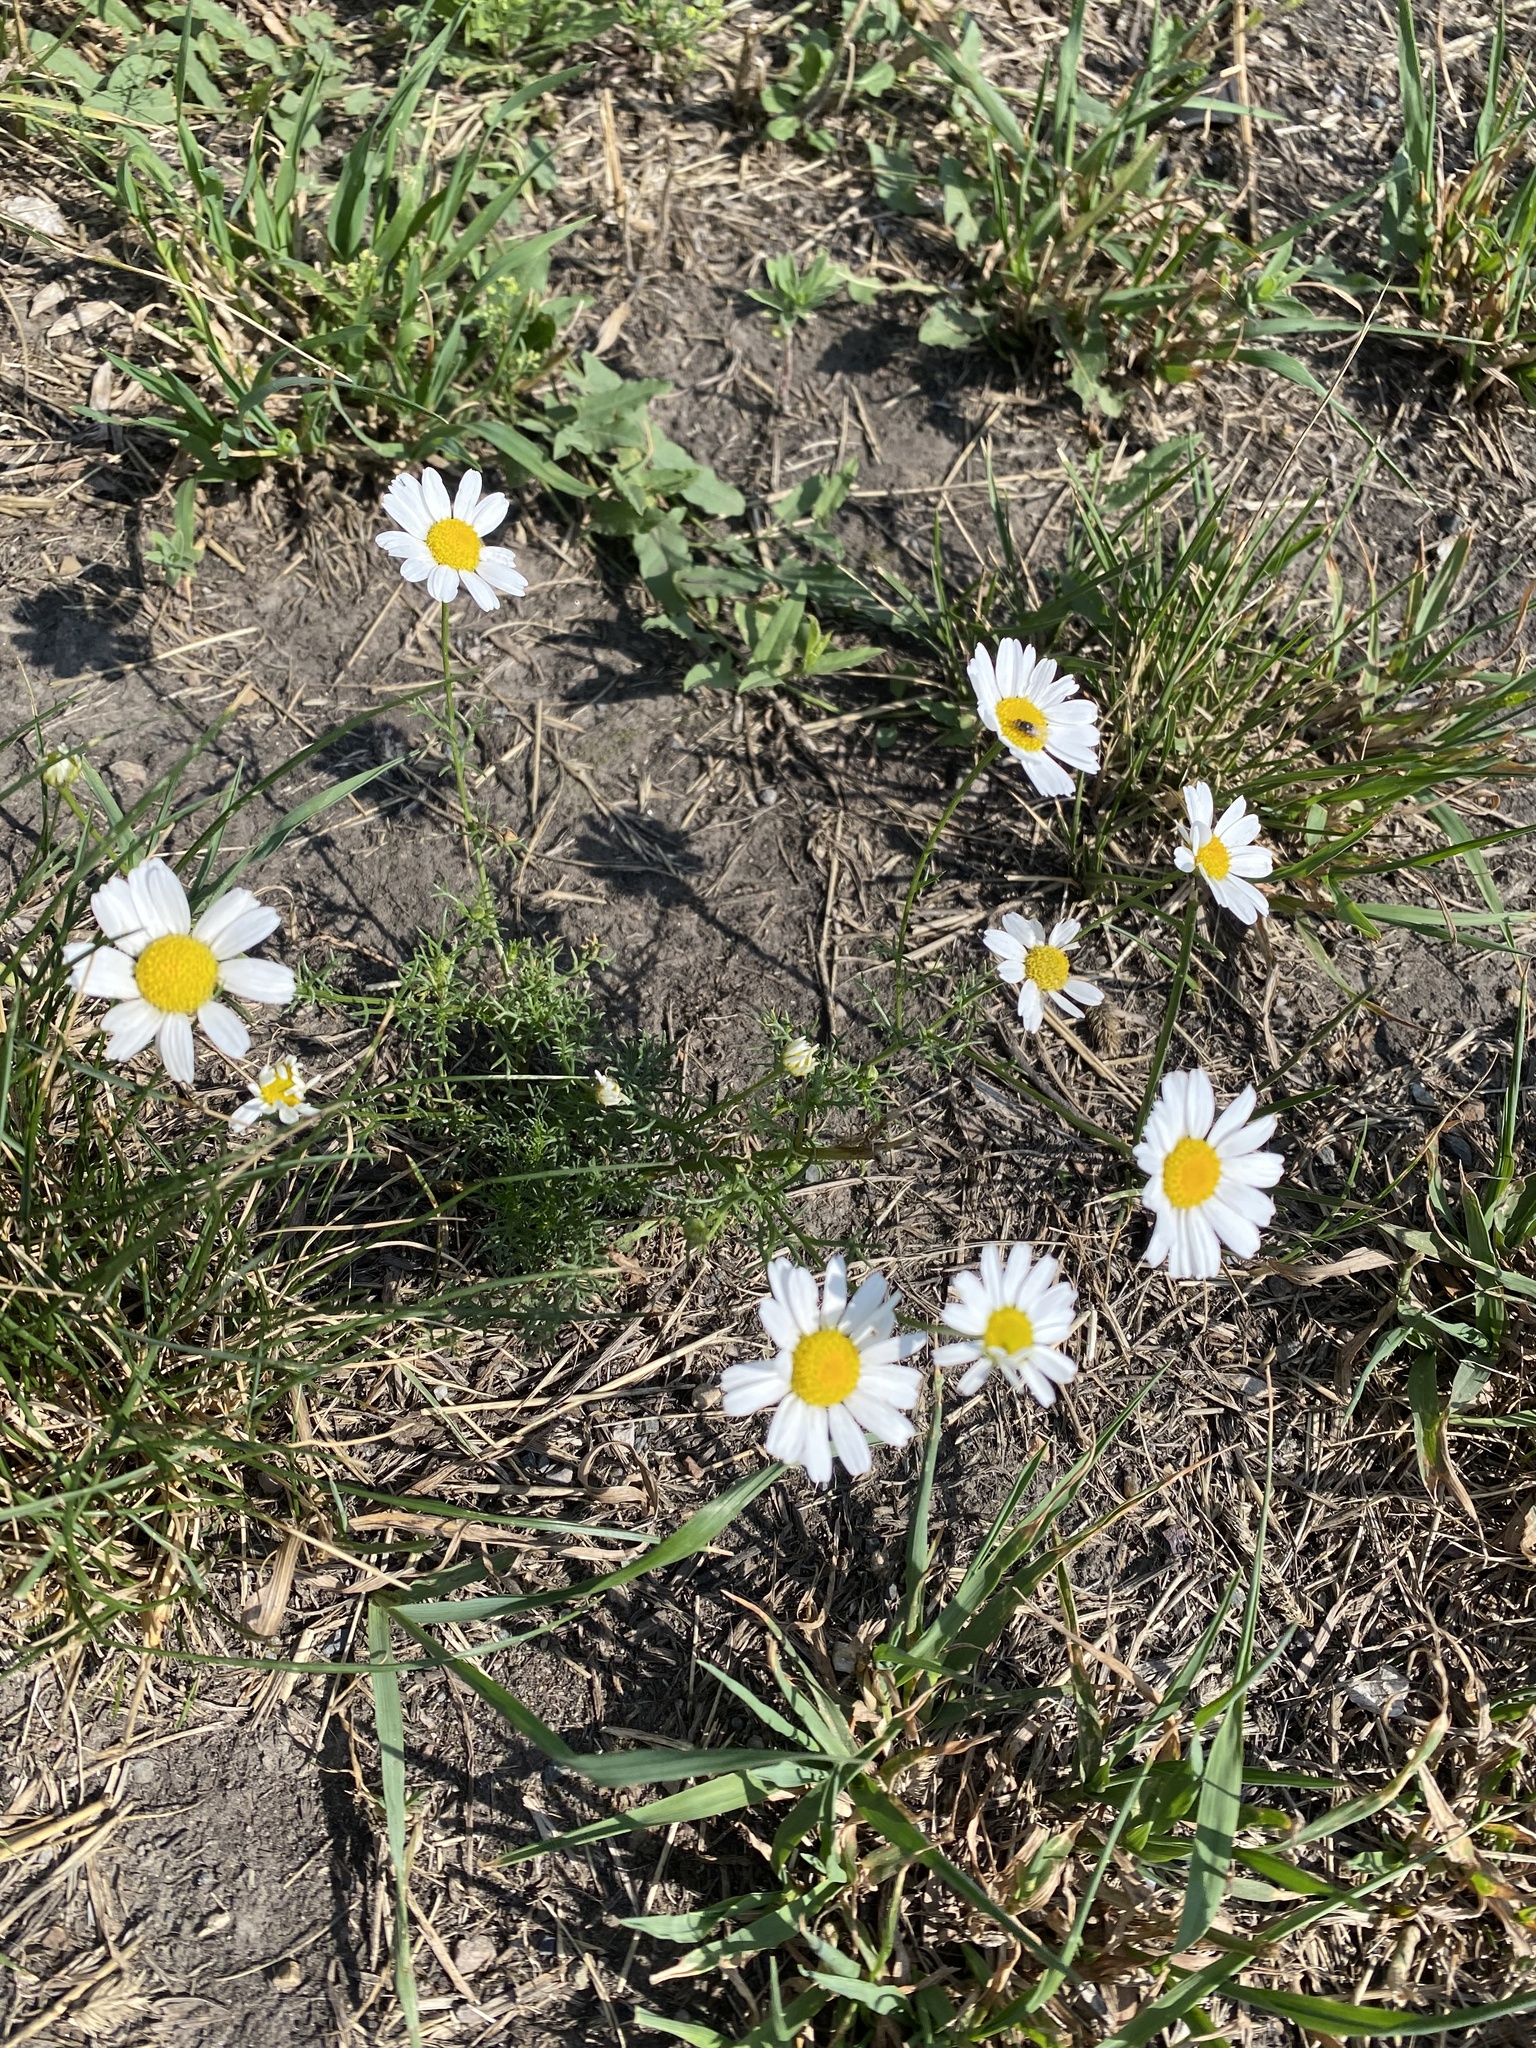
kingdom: Plantae
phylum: Tracheophyta
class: Magnoliopsida
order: Asterales
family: Asteraceae
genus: Tripleurospermum
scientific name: Tripleurospermum inodorum
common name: Scentless mayweed
